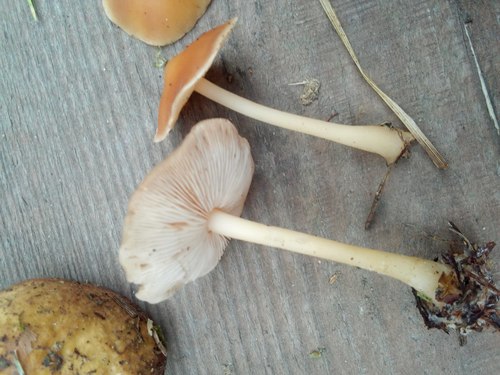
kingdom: Fungi
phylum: Basidiomycota
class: Agaricomycetes
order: Agaricales
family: Omphalotaceae
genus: Gymnopus
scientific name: Gymnopus dryophilus
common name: Penny top
